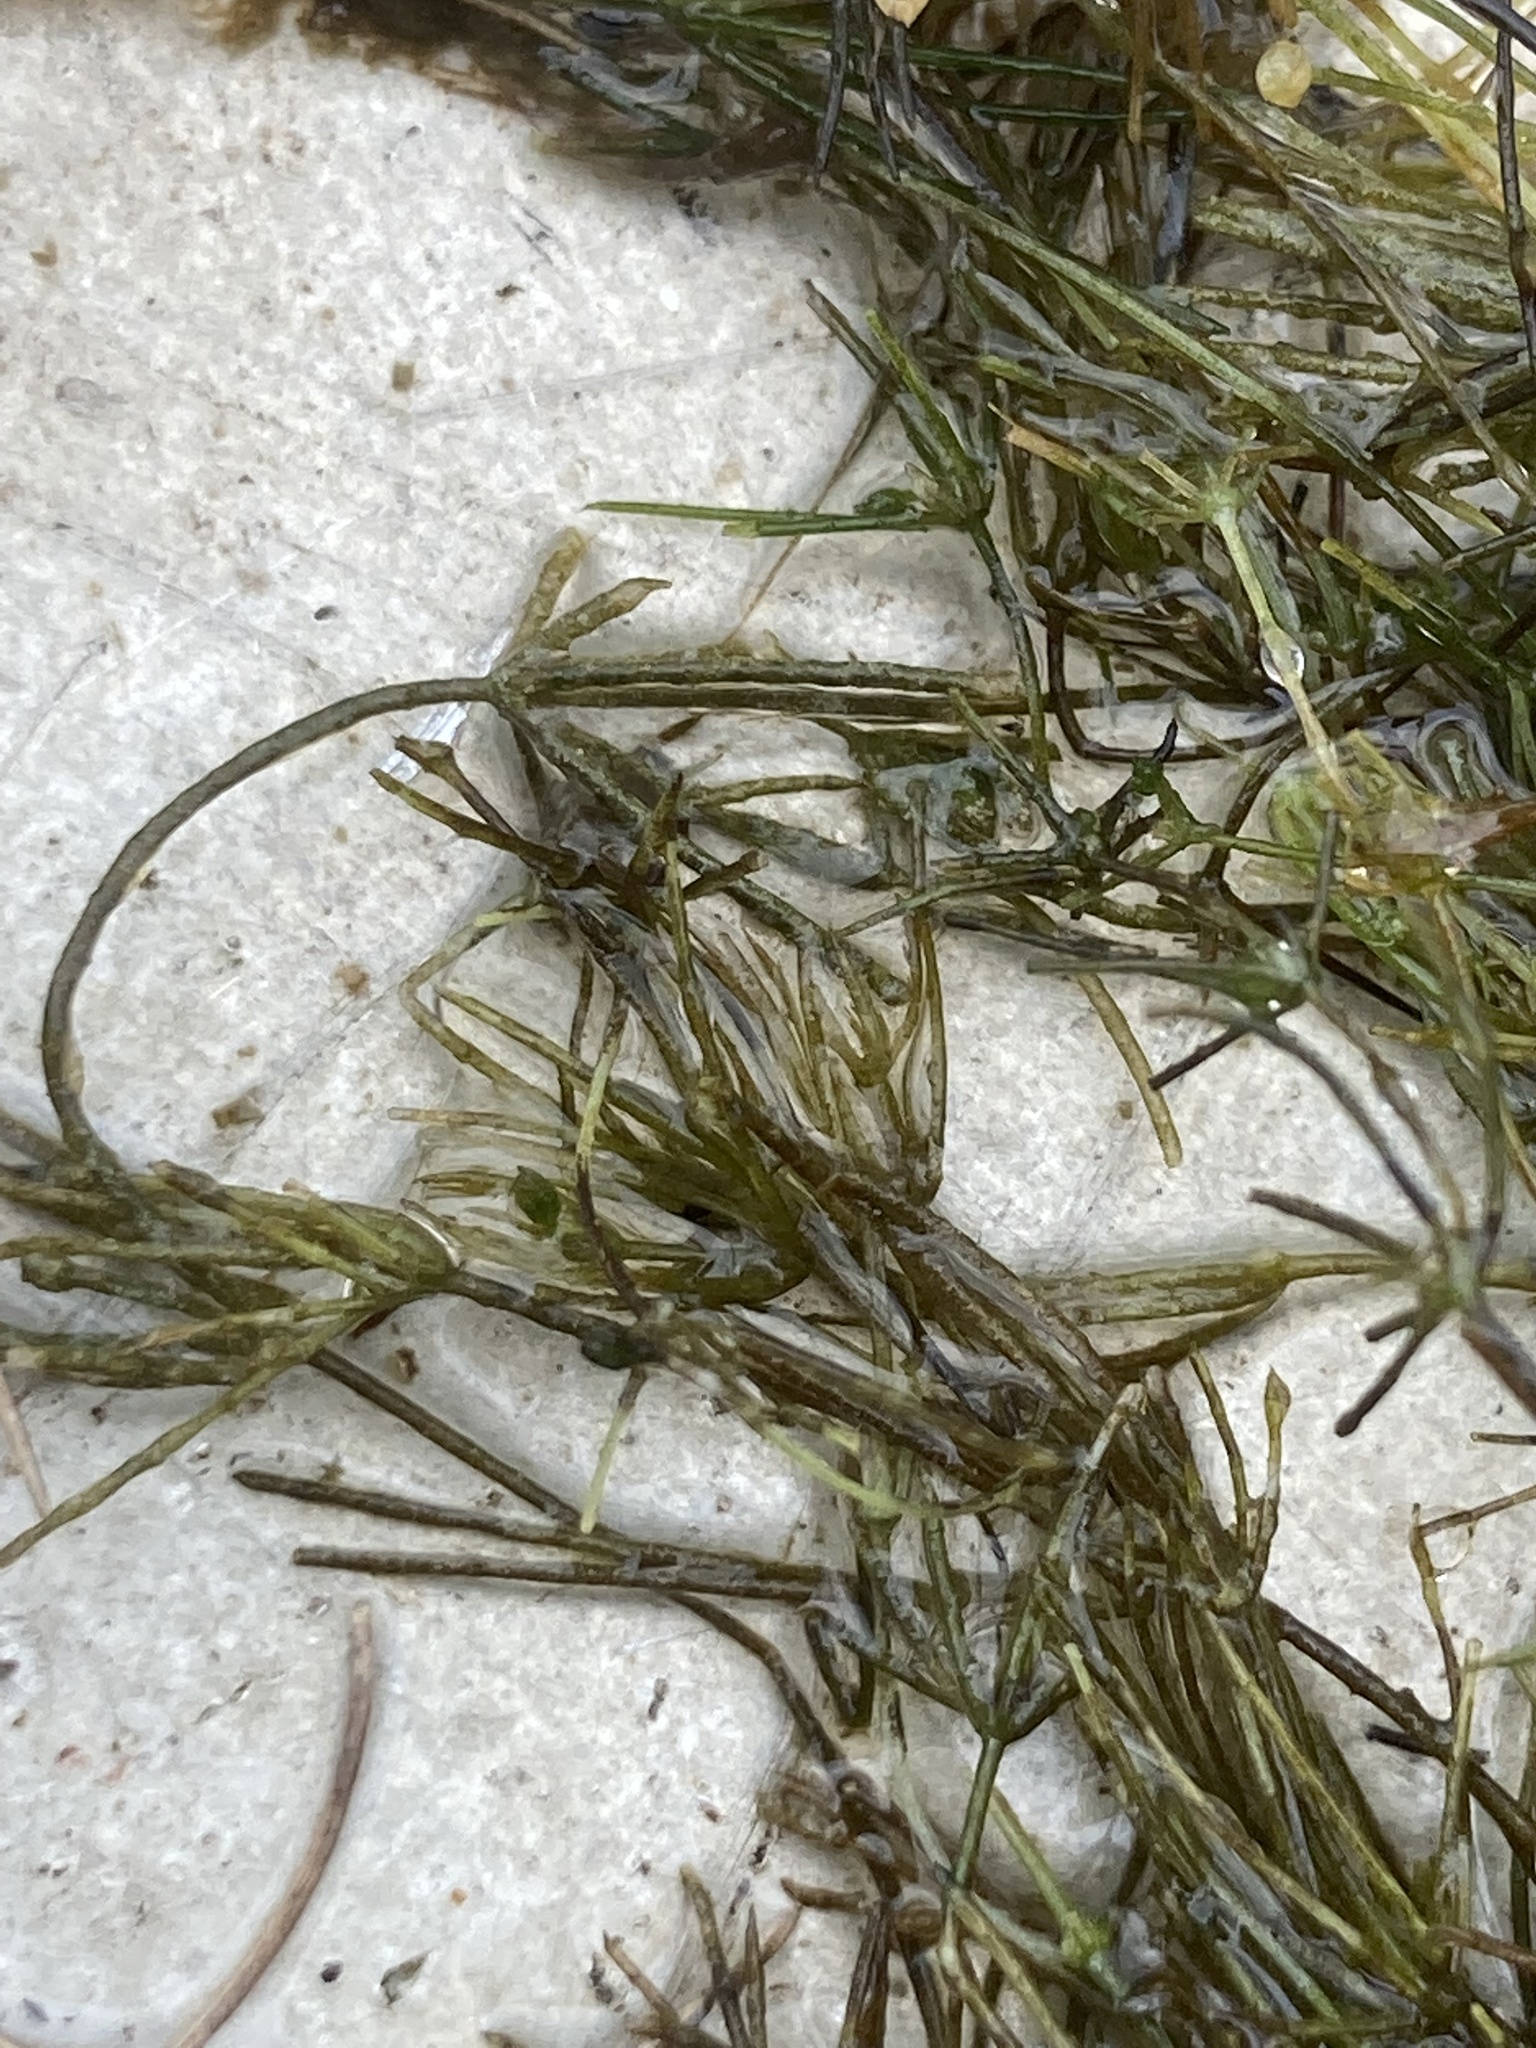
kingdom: Plantae
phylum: Charophyta
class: Charophyceae
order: Charales
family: Characeae
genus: Chara
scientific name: Chara globularis
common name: Fragile stonewort
